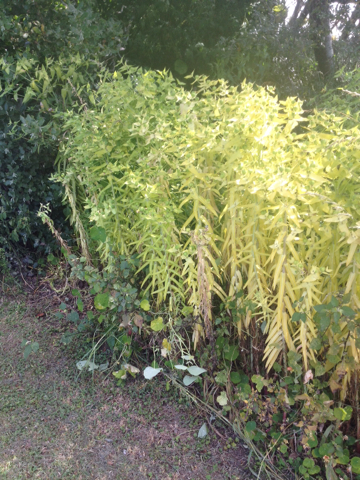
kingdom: Plantae
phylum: Tracheophyta
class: Magnoliopsida
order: Malpighiales
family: Euphorbiaceae
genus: Euphorbia
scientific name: Euphorbia lathyris
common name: Caper spurge
